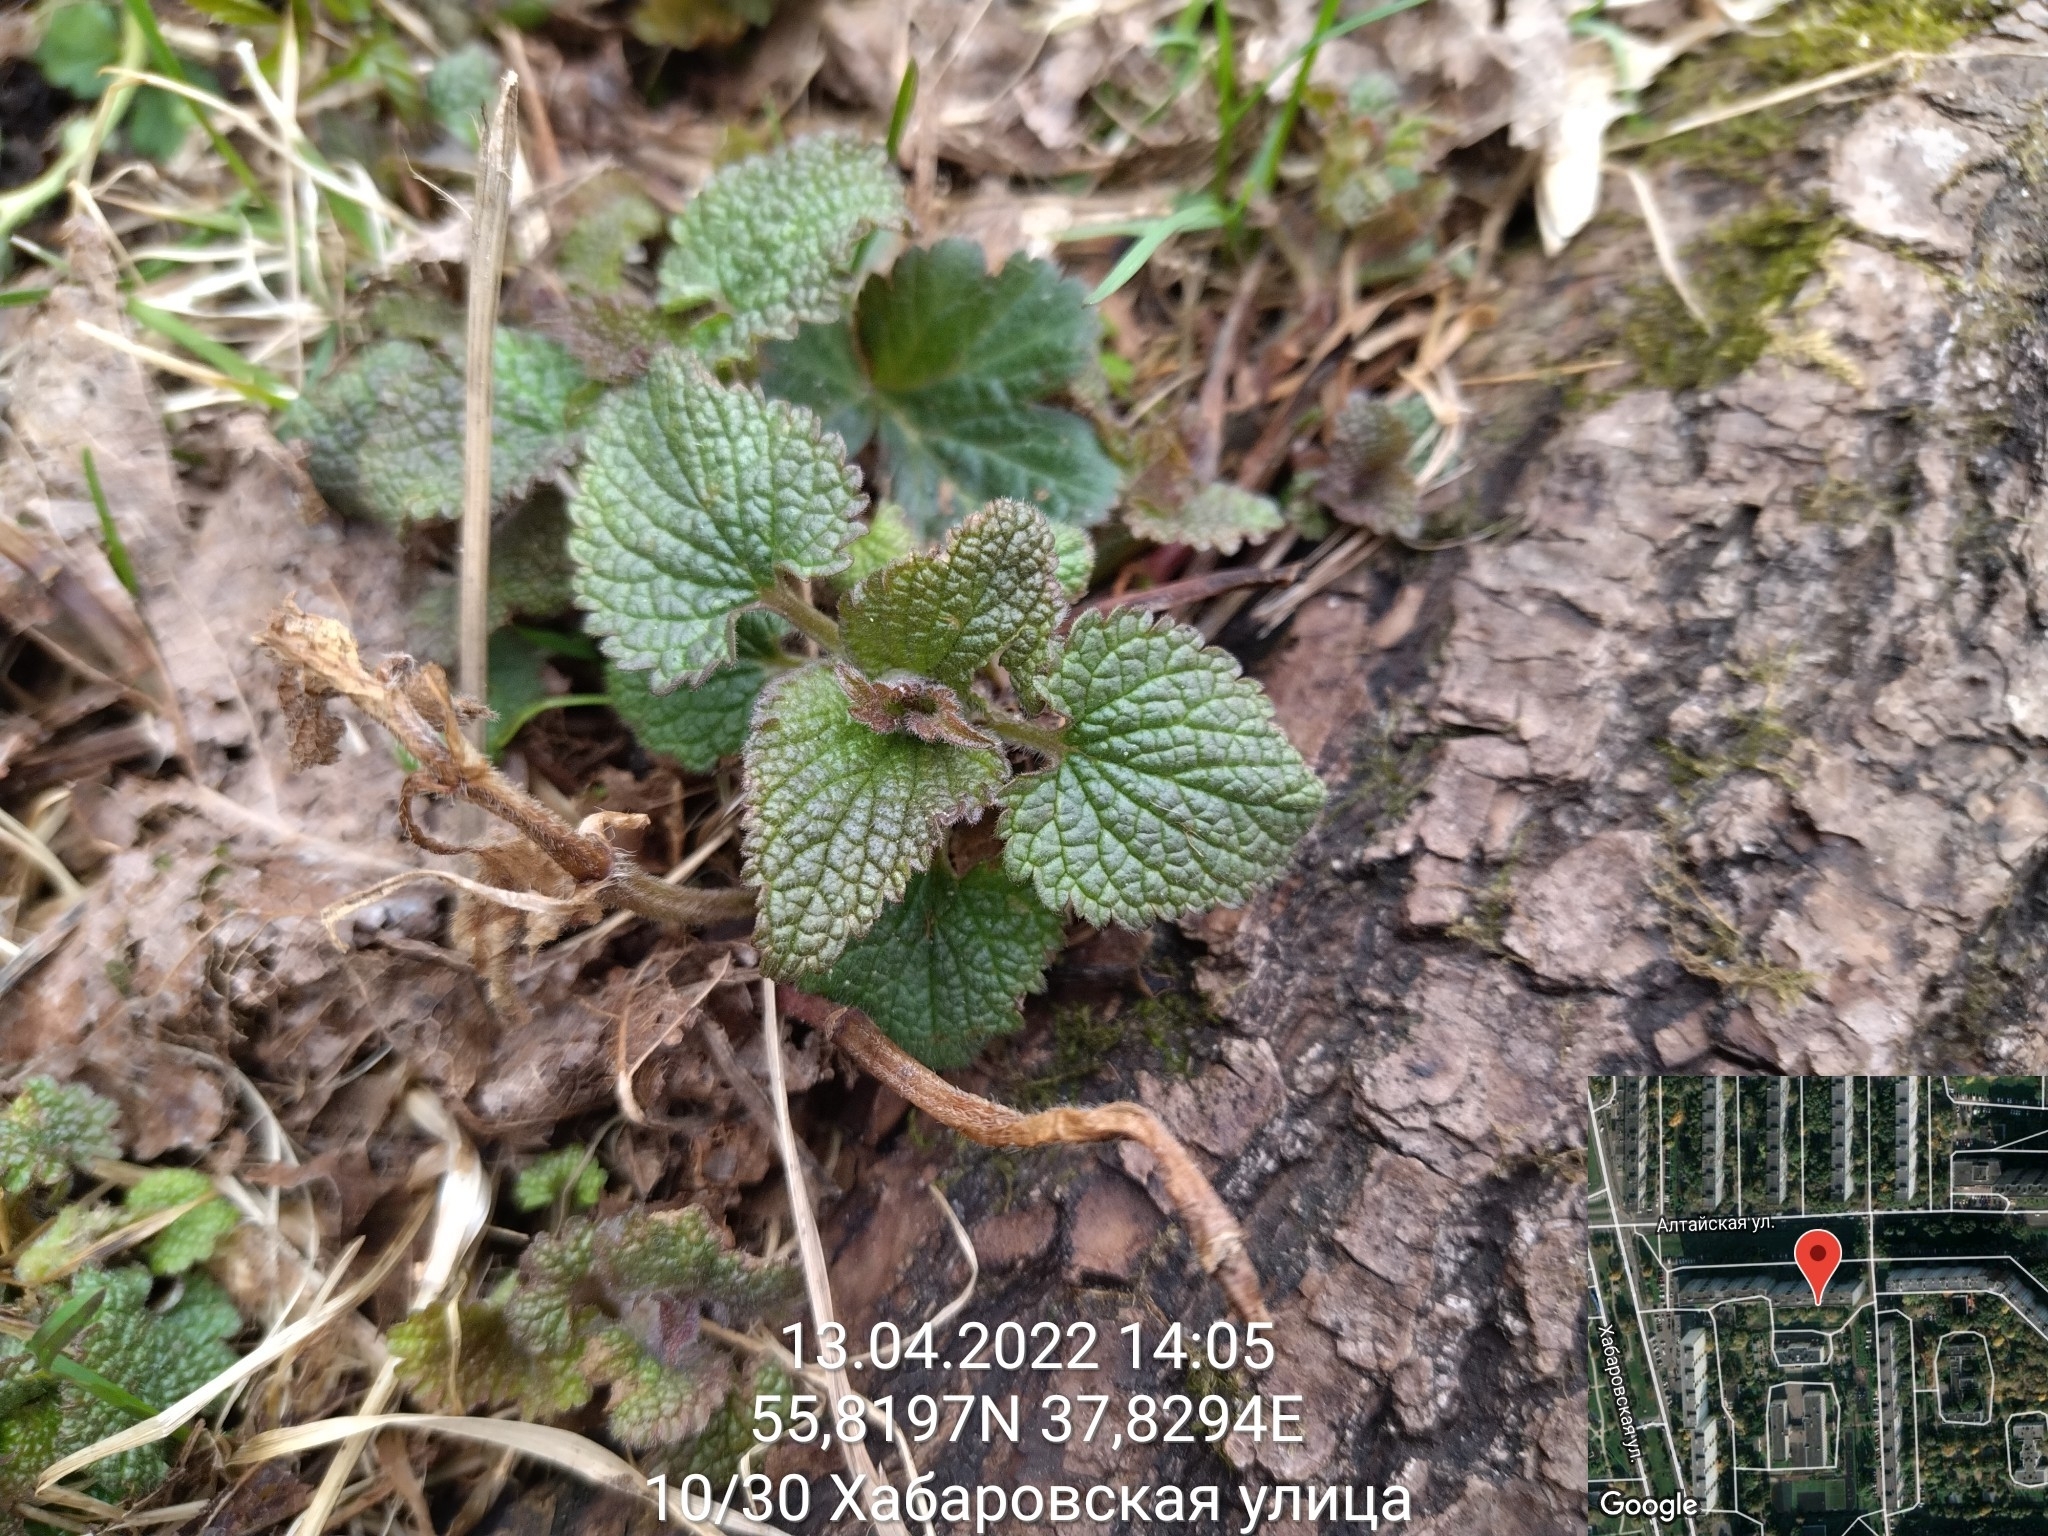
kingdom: Plantae
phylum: Tracheophyta
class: Magnoliopsida
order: Lamiales
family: Lamiaceae
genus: Lamium
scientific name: Lamium album
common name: White dead-nettle
